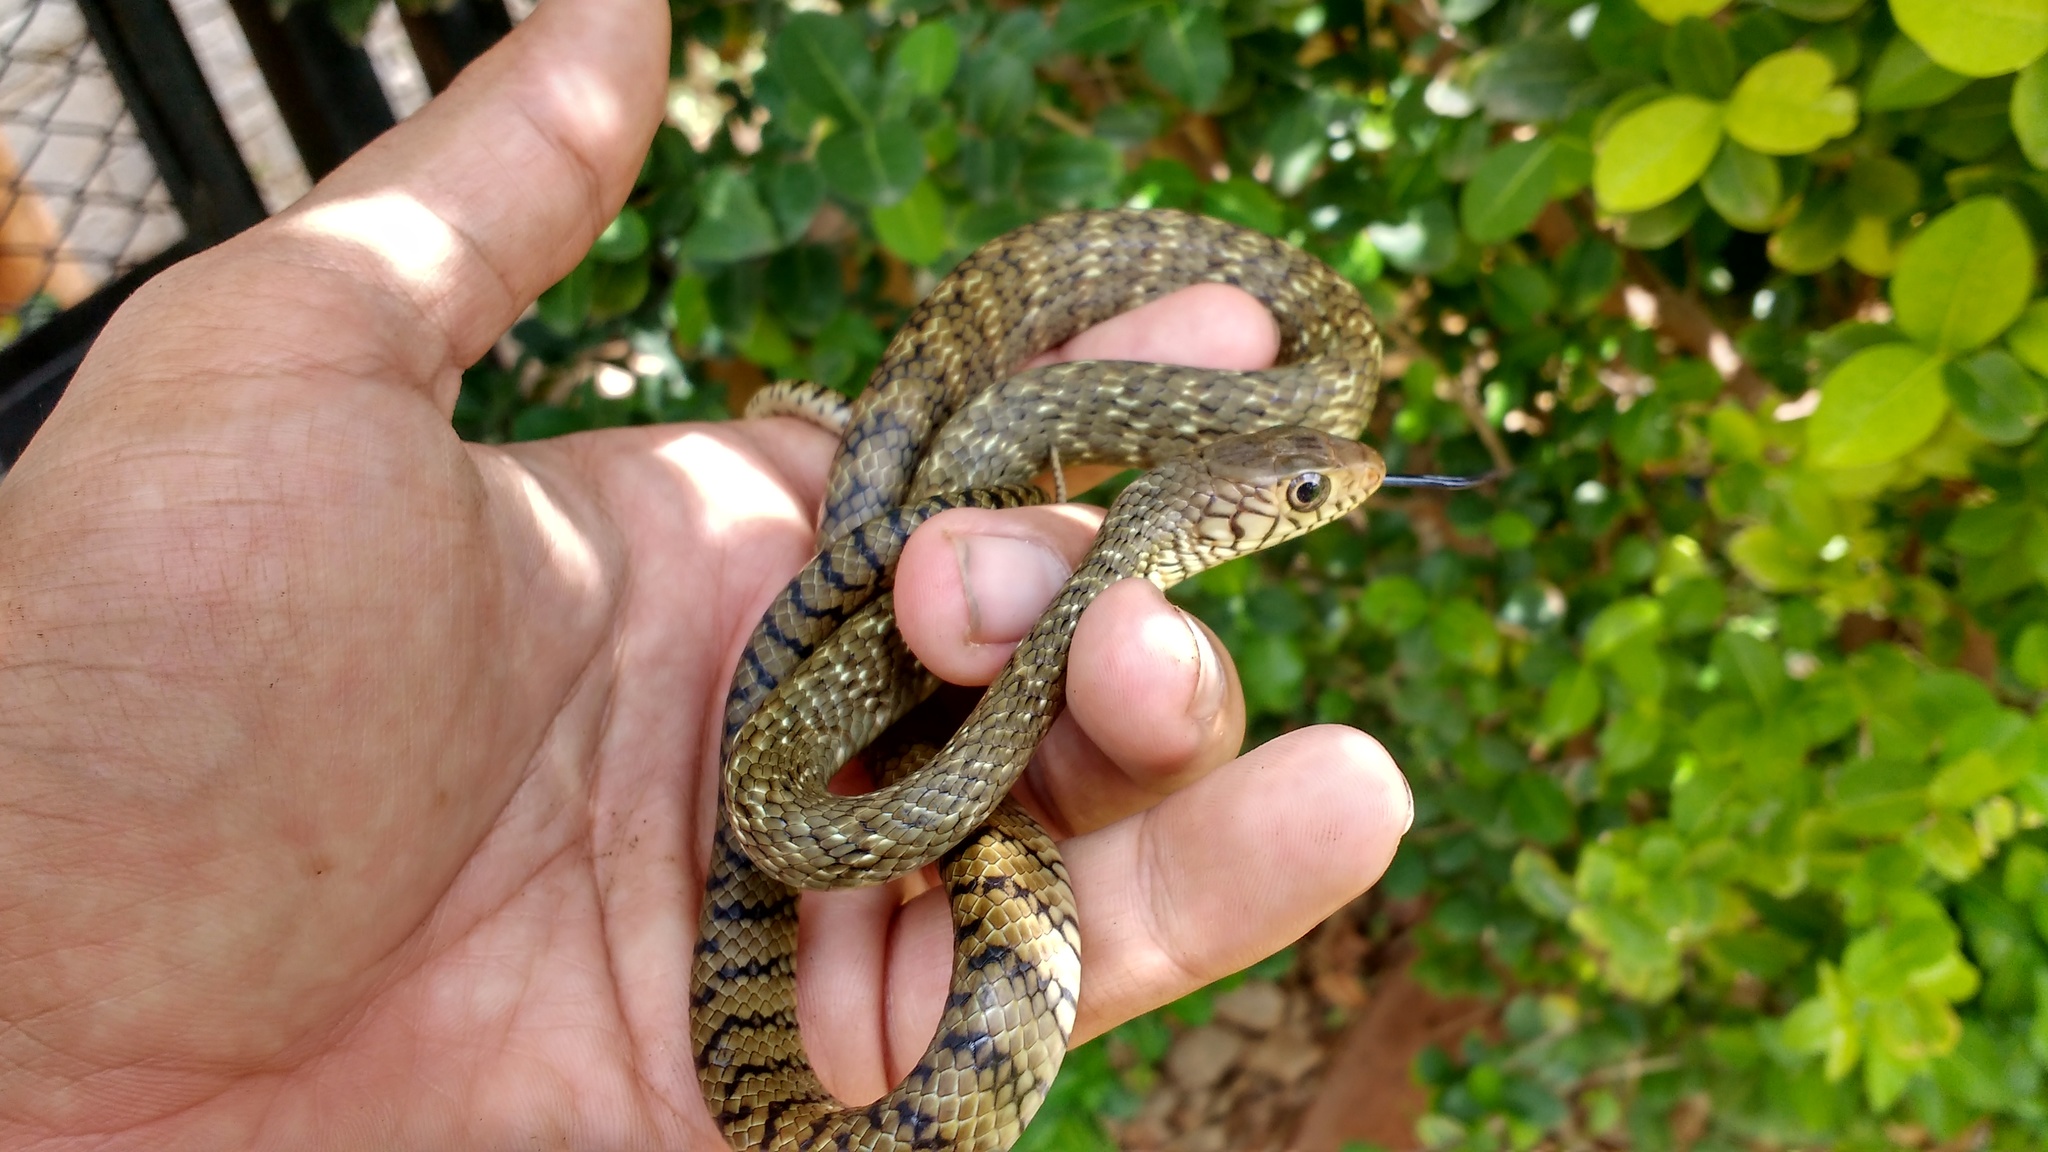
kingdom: Animalia
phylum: Chordata
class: Squamata
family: Colubridae
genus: Ptyas
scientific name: Ptyas mucosa
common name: Oriental ratsnake
